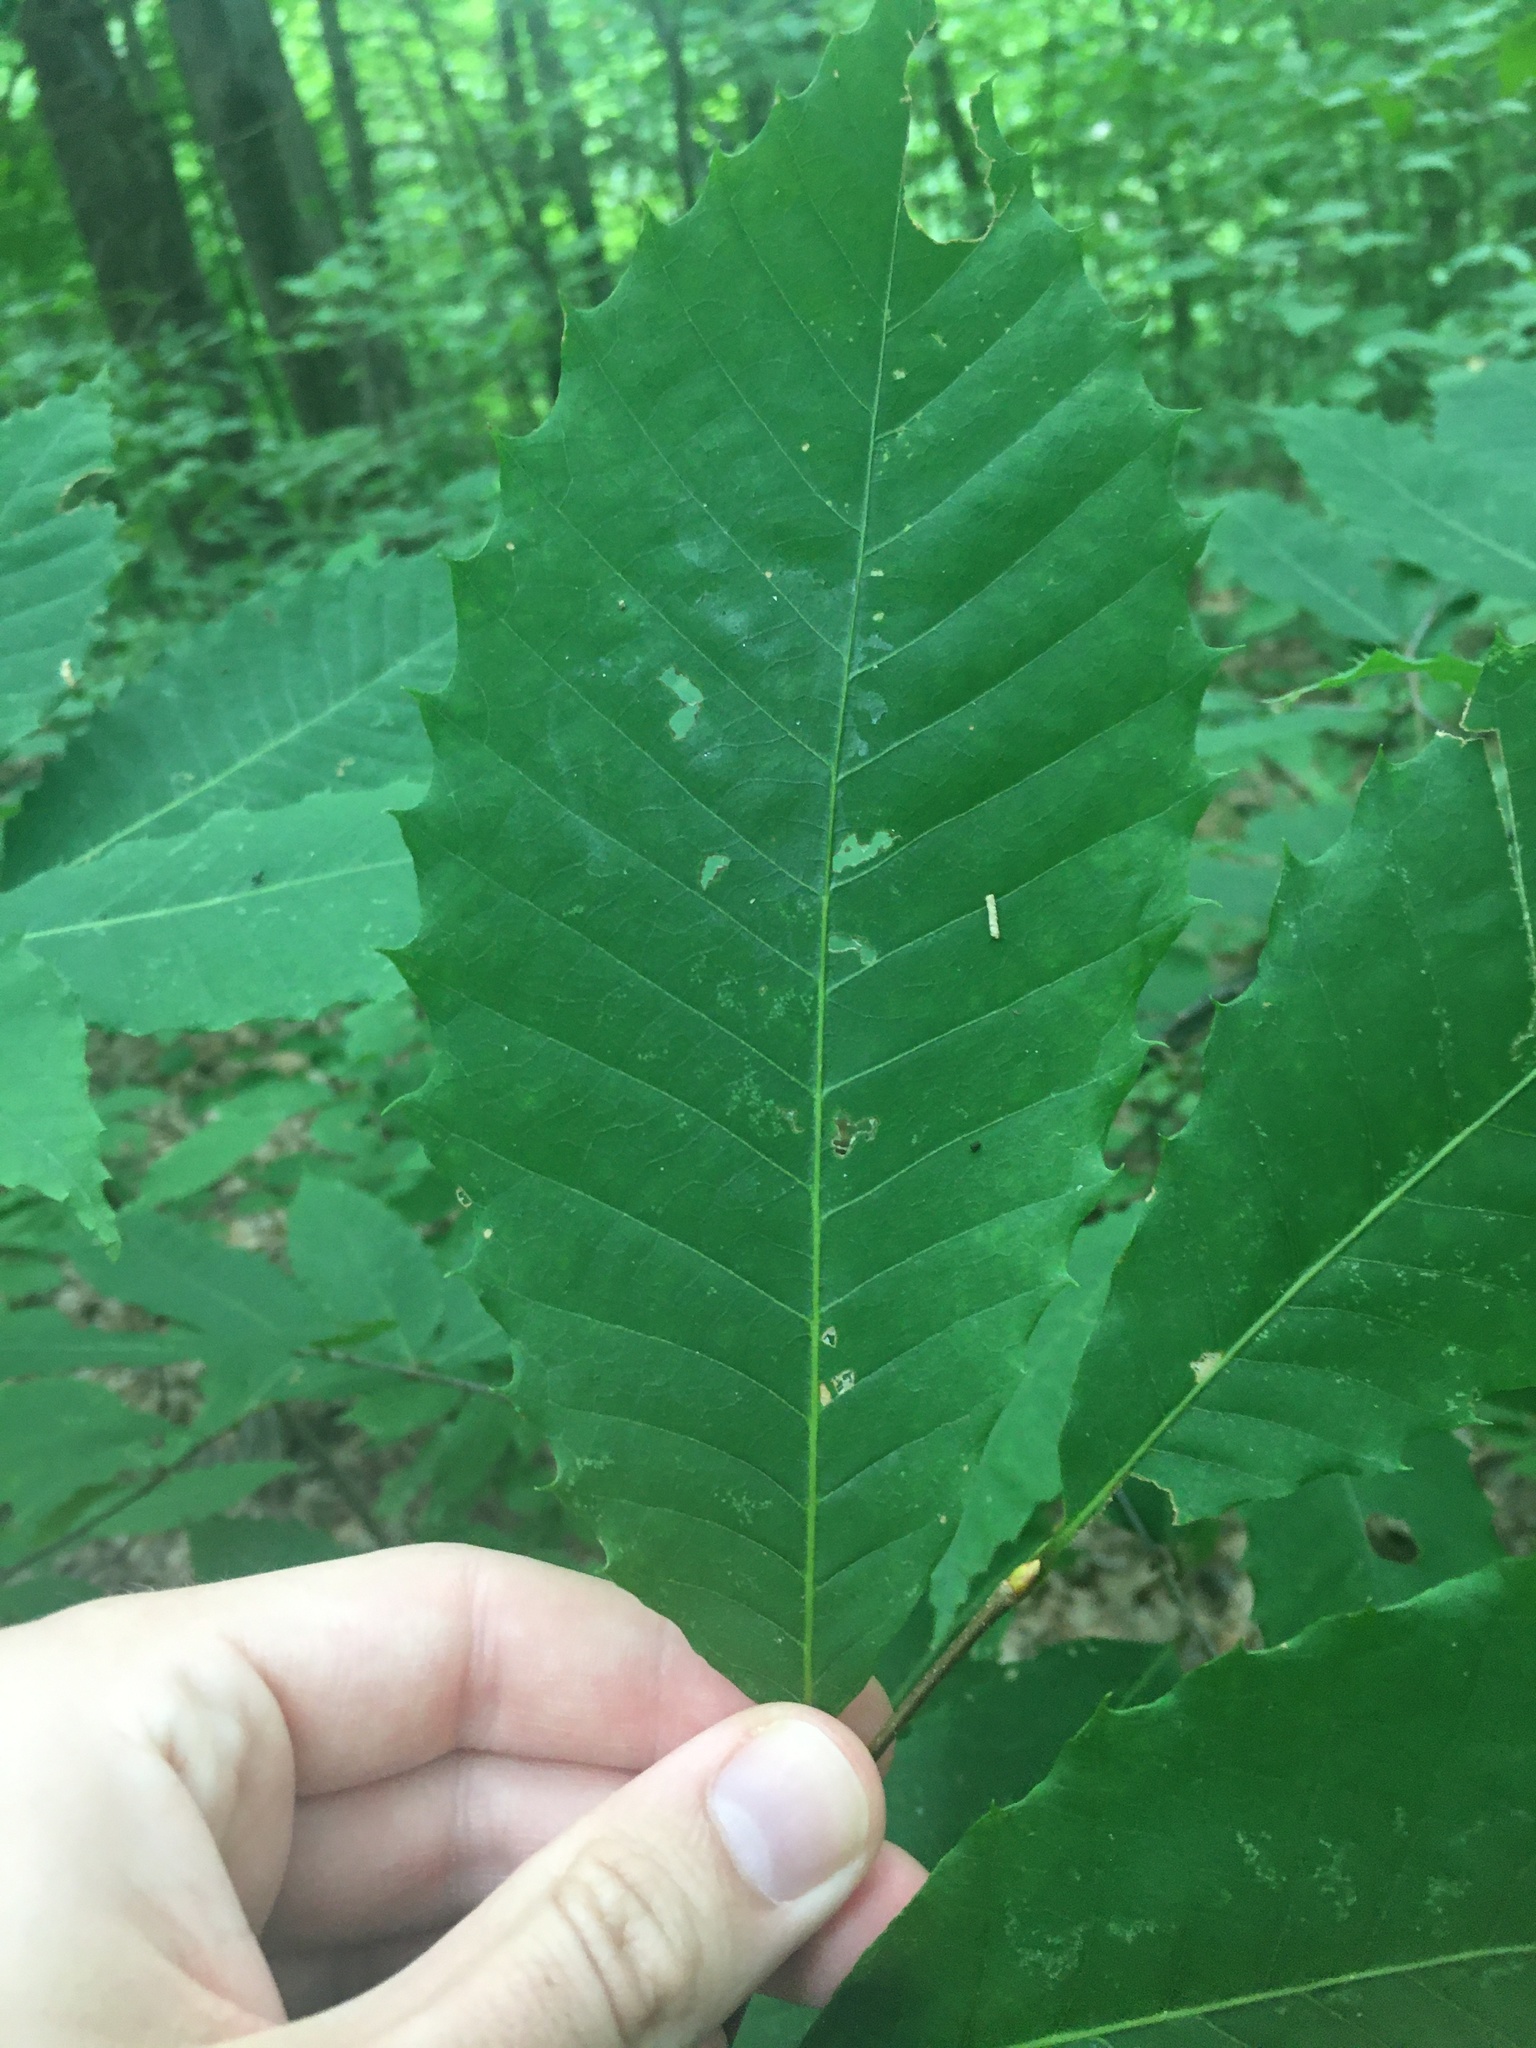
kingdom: Plantae
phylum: Tracheophyta
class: Magnoliopsida
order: Fagales
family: Fagaceae
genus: Castanea
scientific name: Castanea dentata
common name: American chestnut
